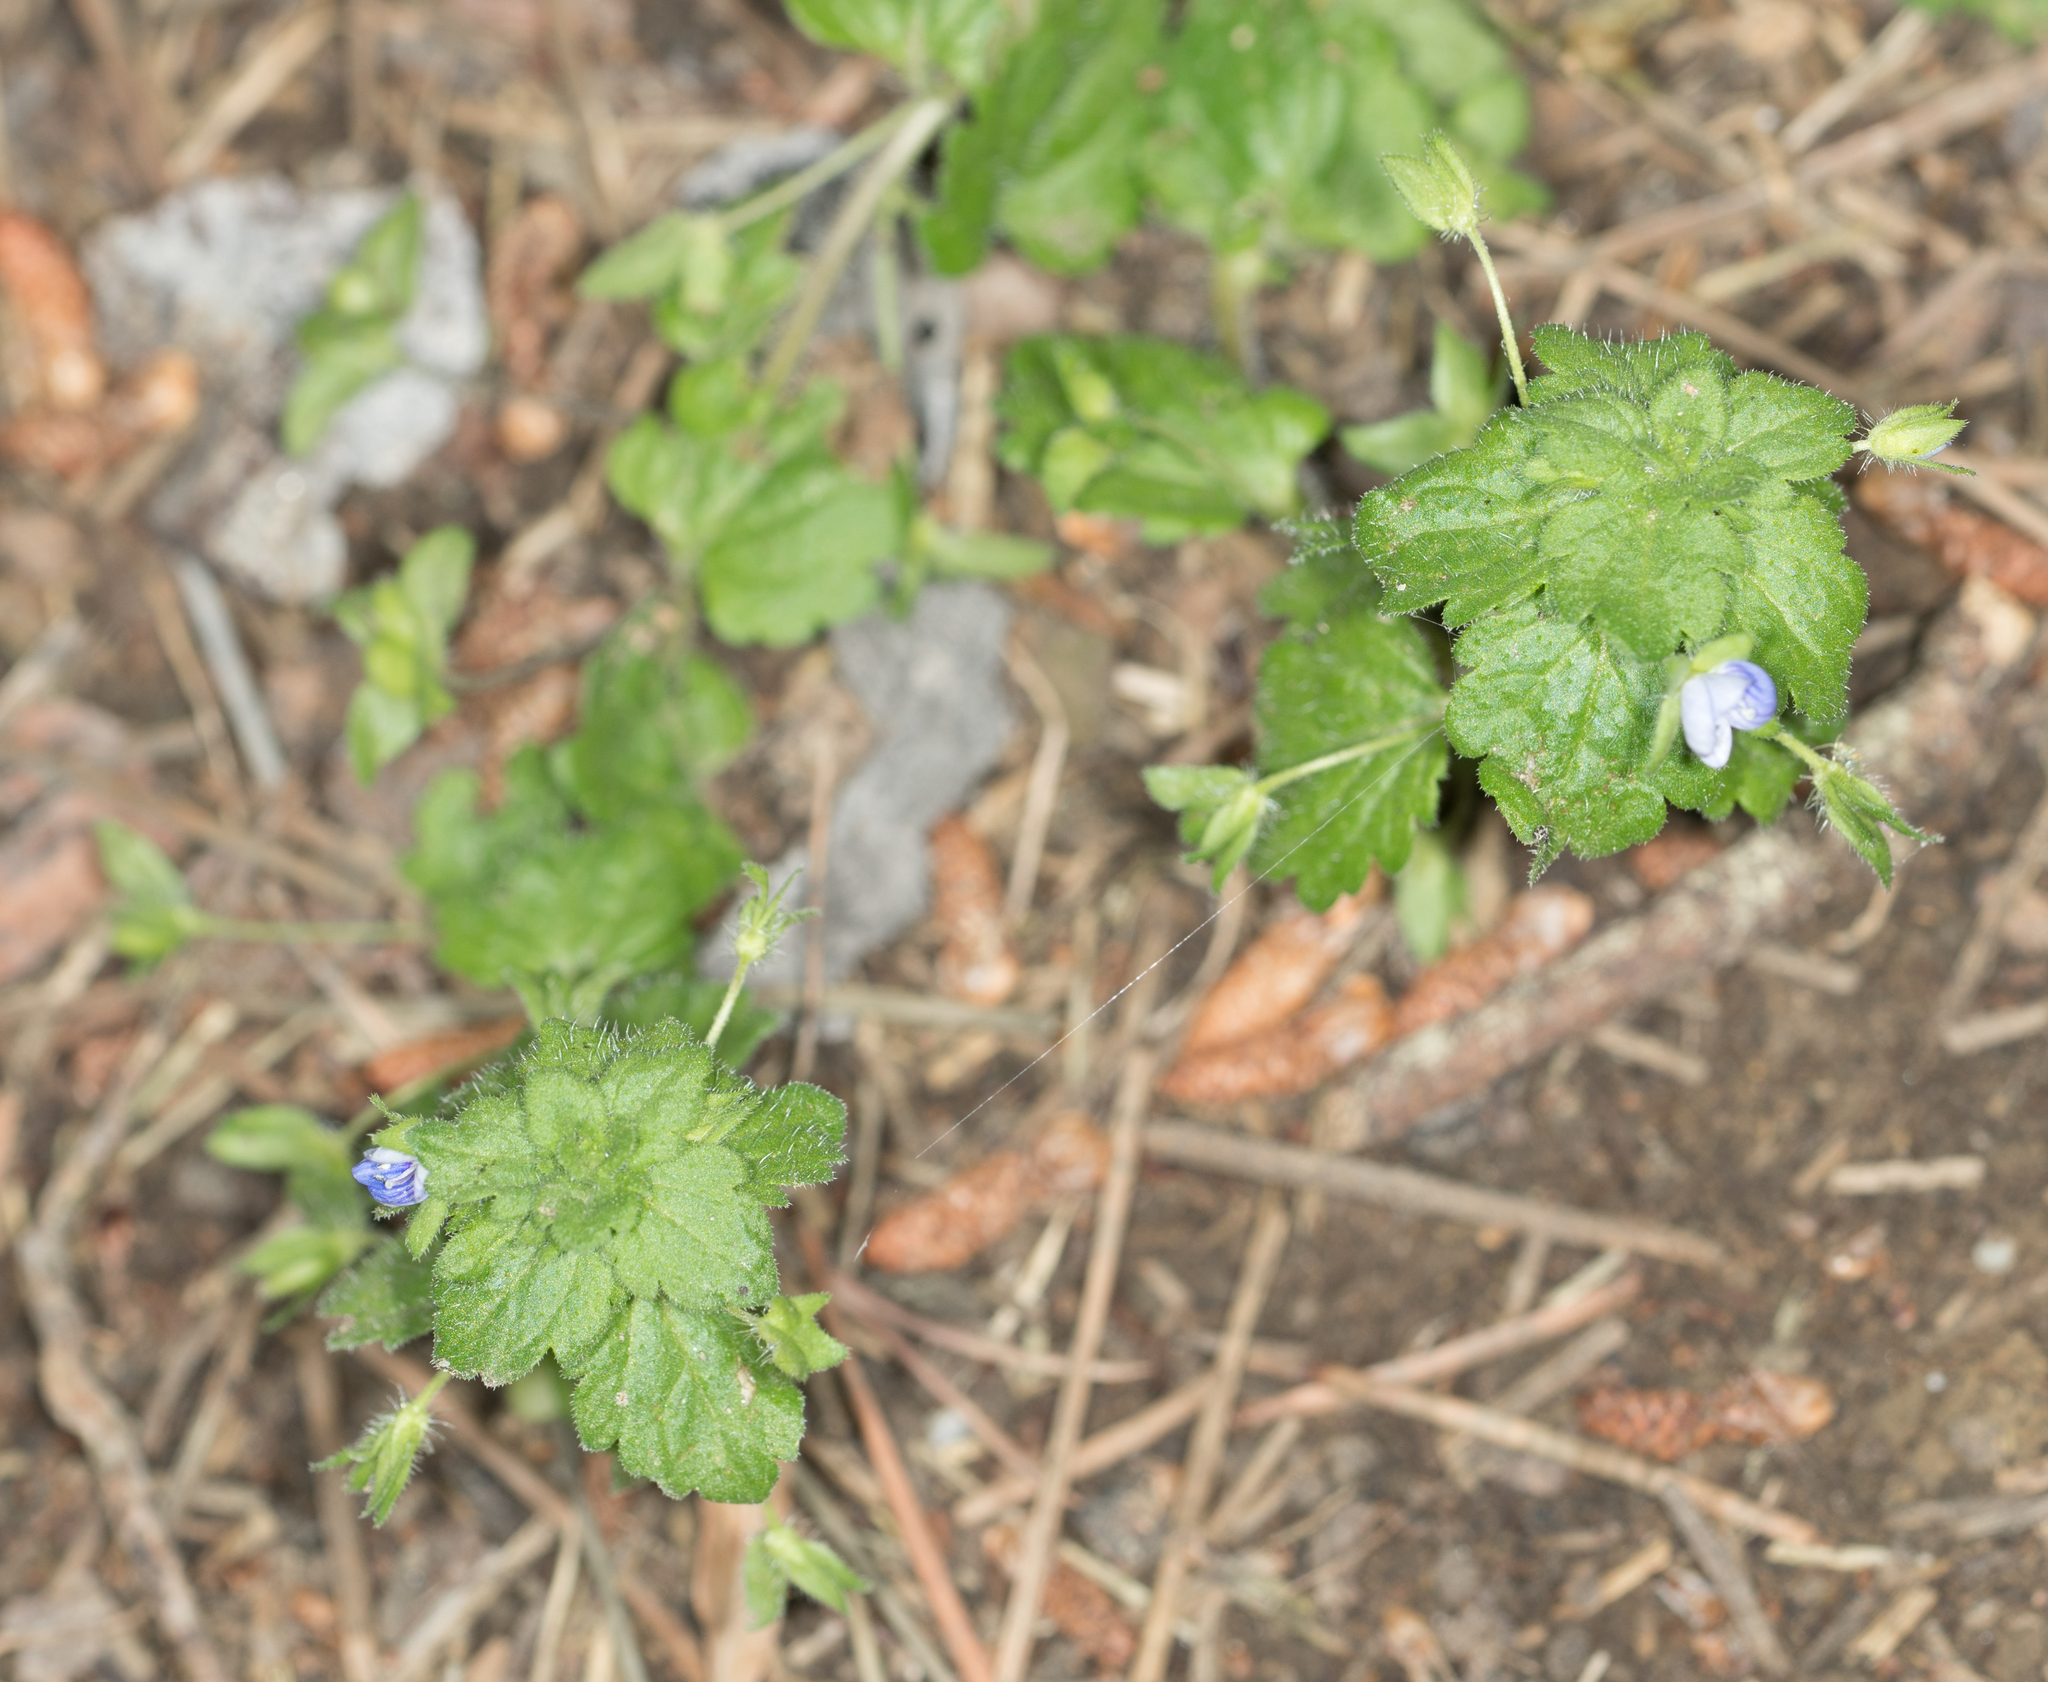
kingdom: Plantae
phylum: Tracheophyta
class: Magnoliopsida
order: Lamiales
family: Plantaginaceae
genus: Veronica
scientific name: Veronica persica
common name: Common field-speedwell
